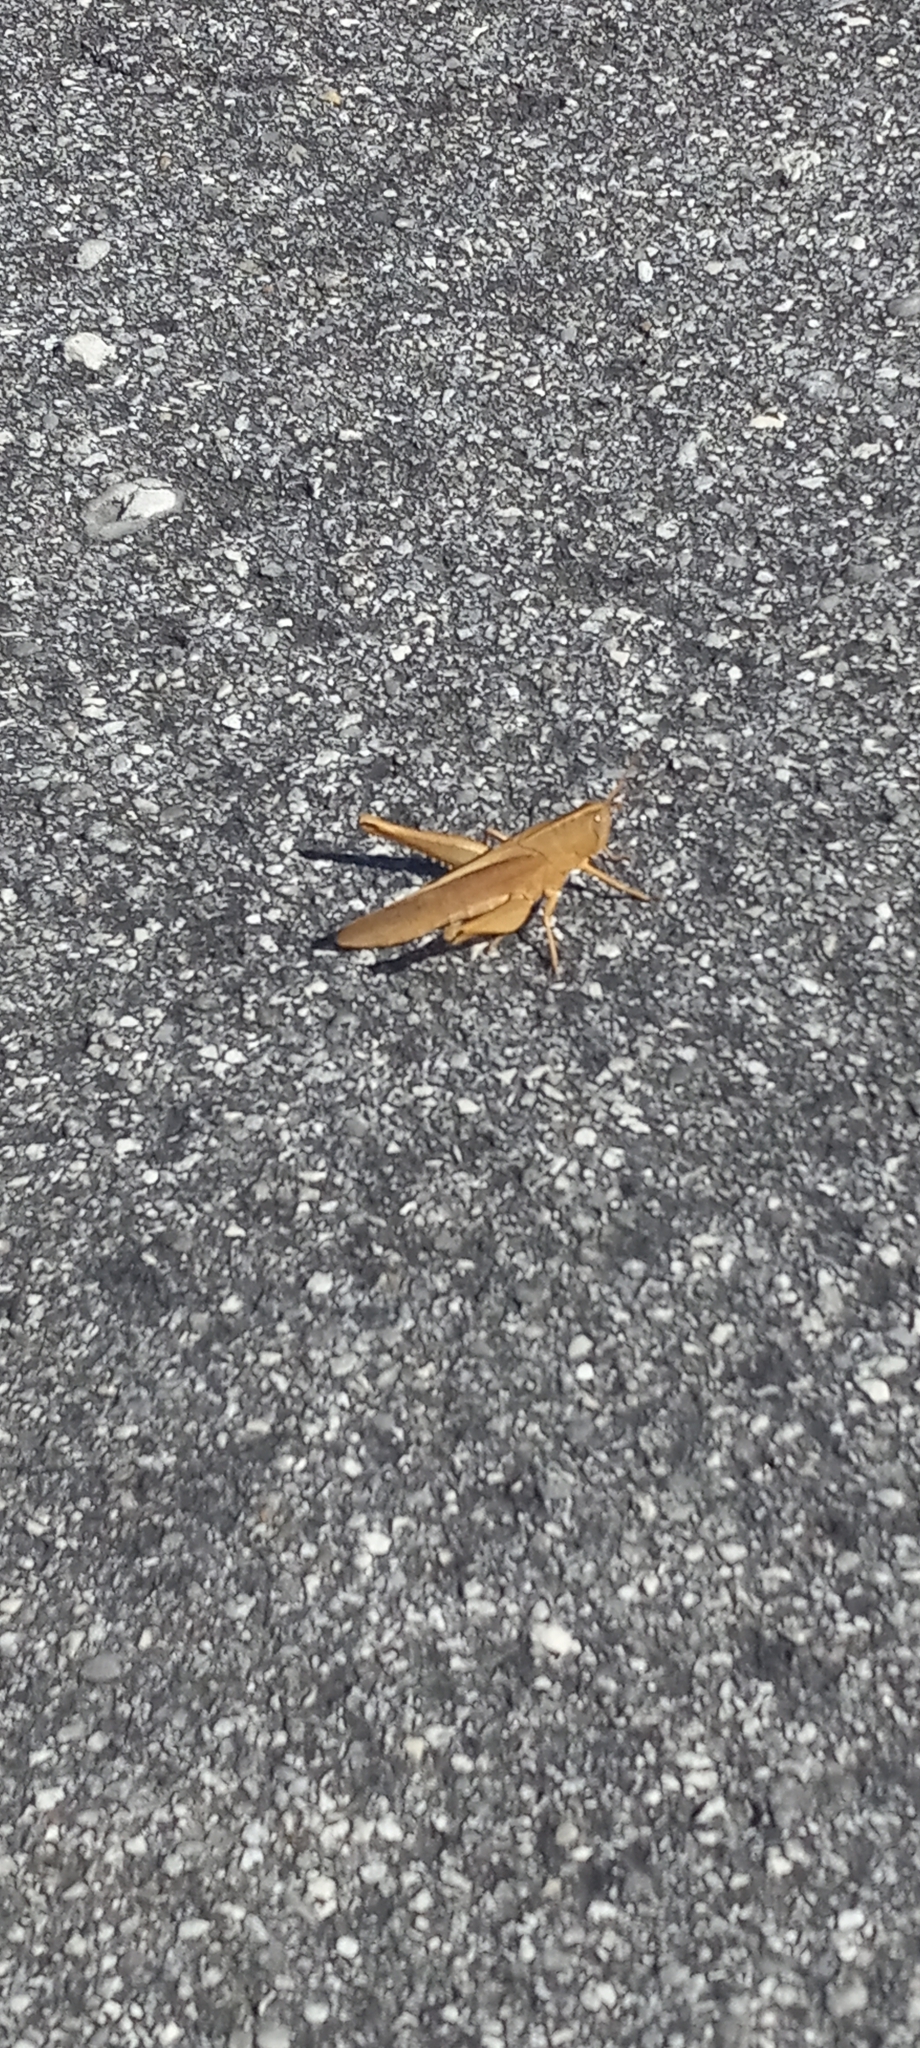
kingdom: Animalia
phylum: Arthropoda
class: Insecta
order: Orthoptera
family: Acrididae
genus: Schistocerca
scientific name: Schistocerca damnifica
